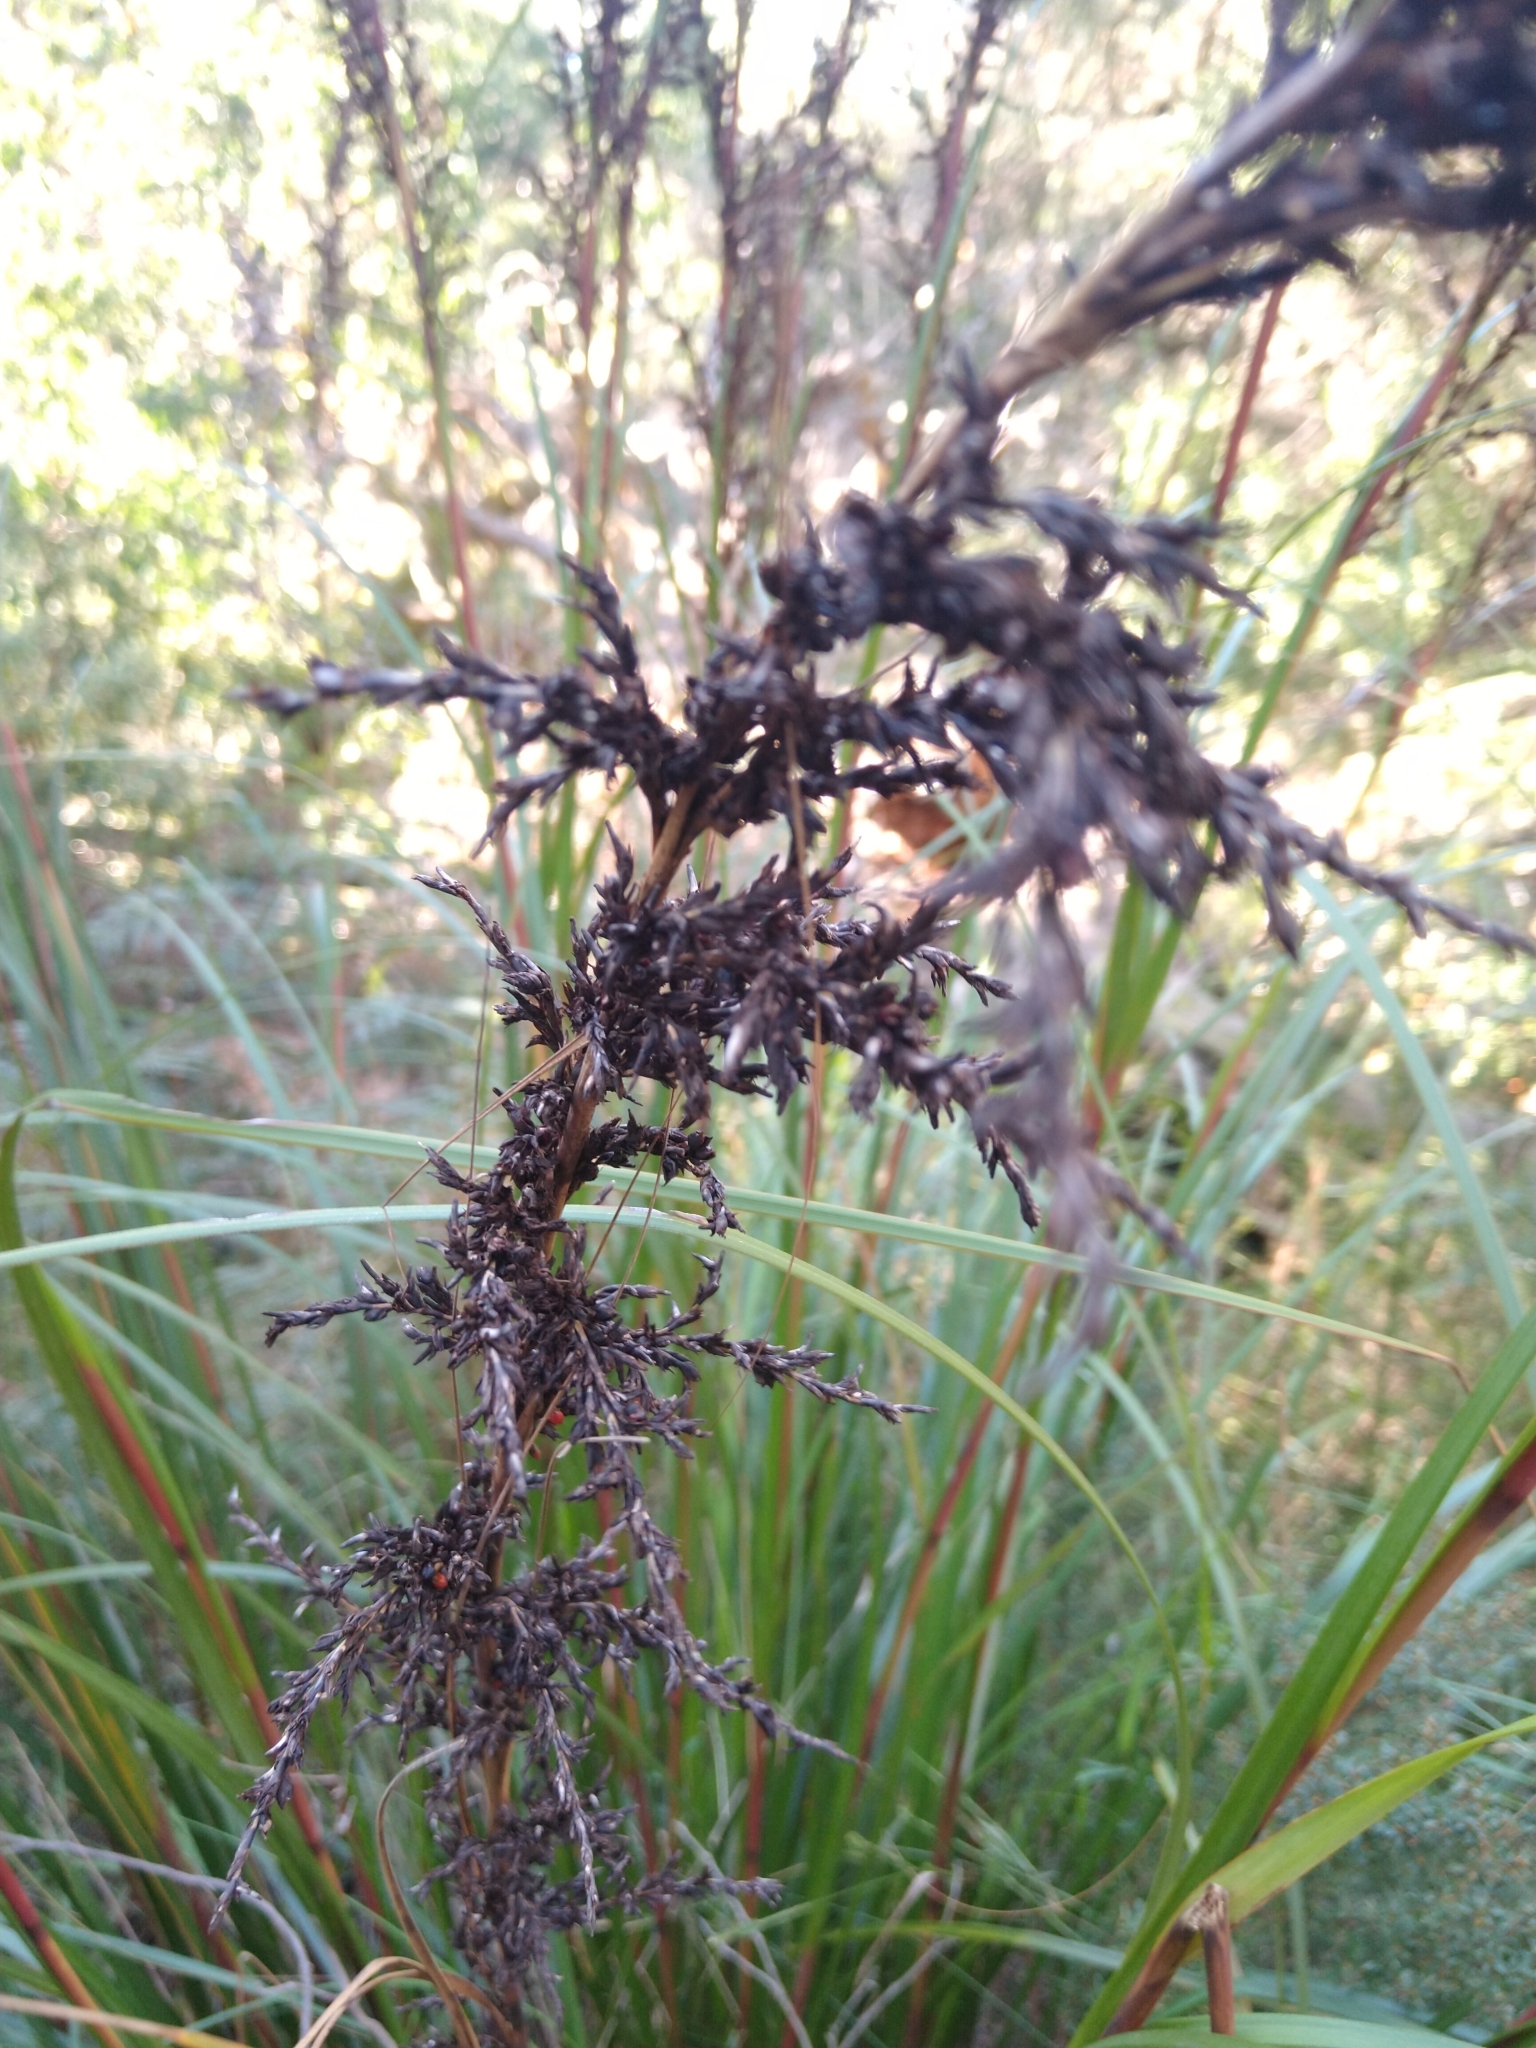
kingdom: Plantae
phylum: Tracheophyta
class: Liliopsida
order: Poales
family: Cyperaceae
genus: Gahnia
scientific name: Gahnia sieberiana
